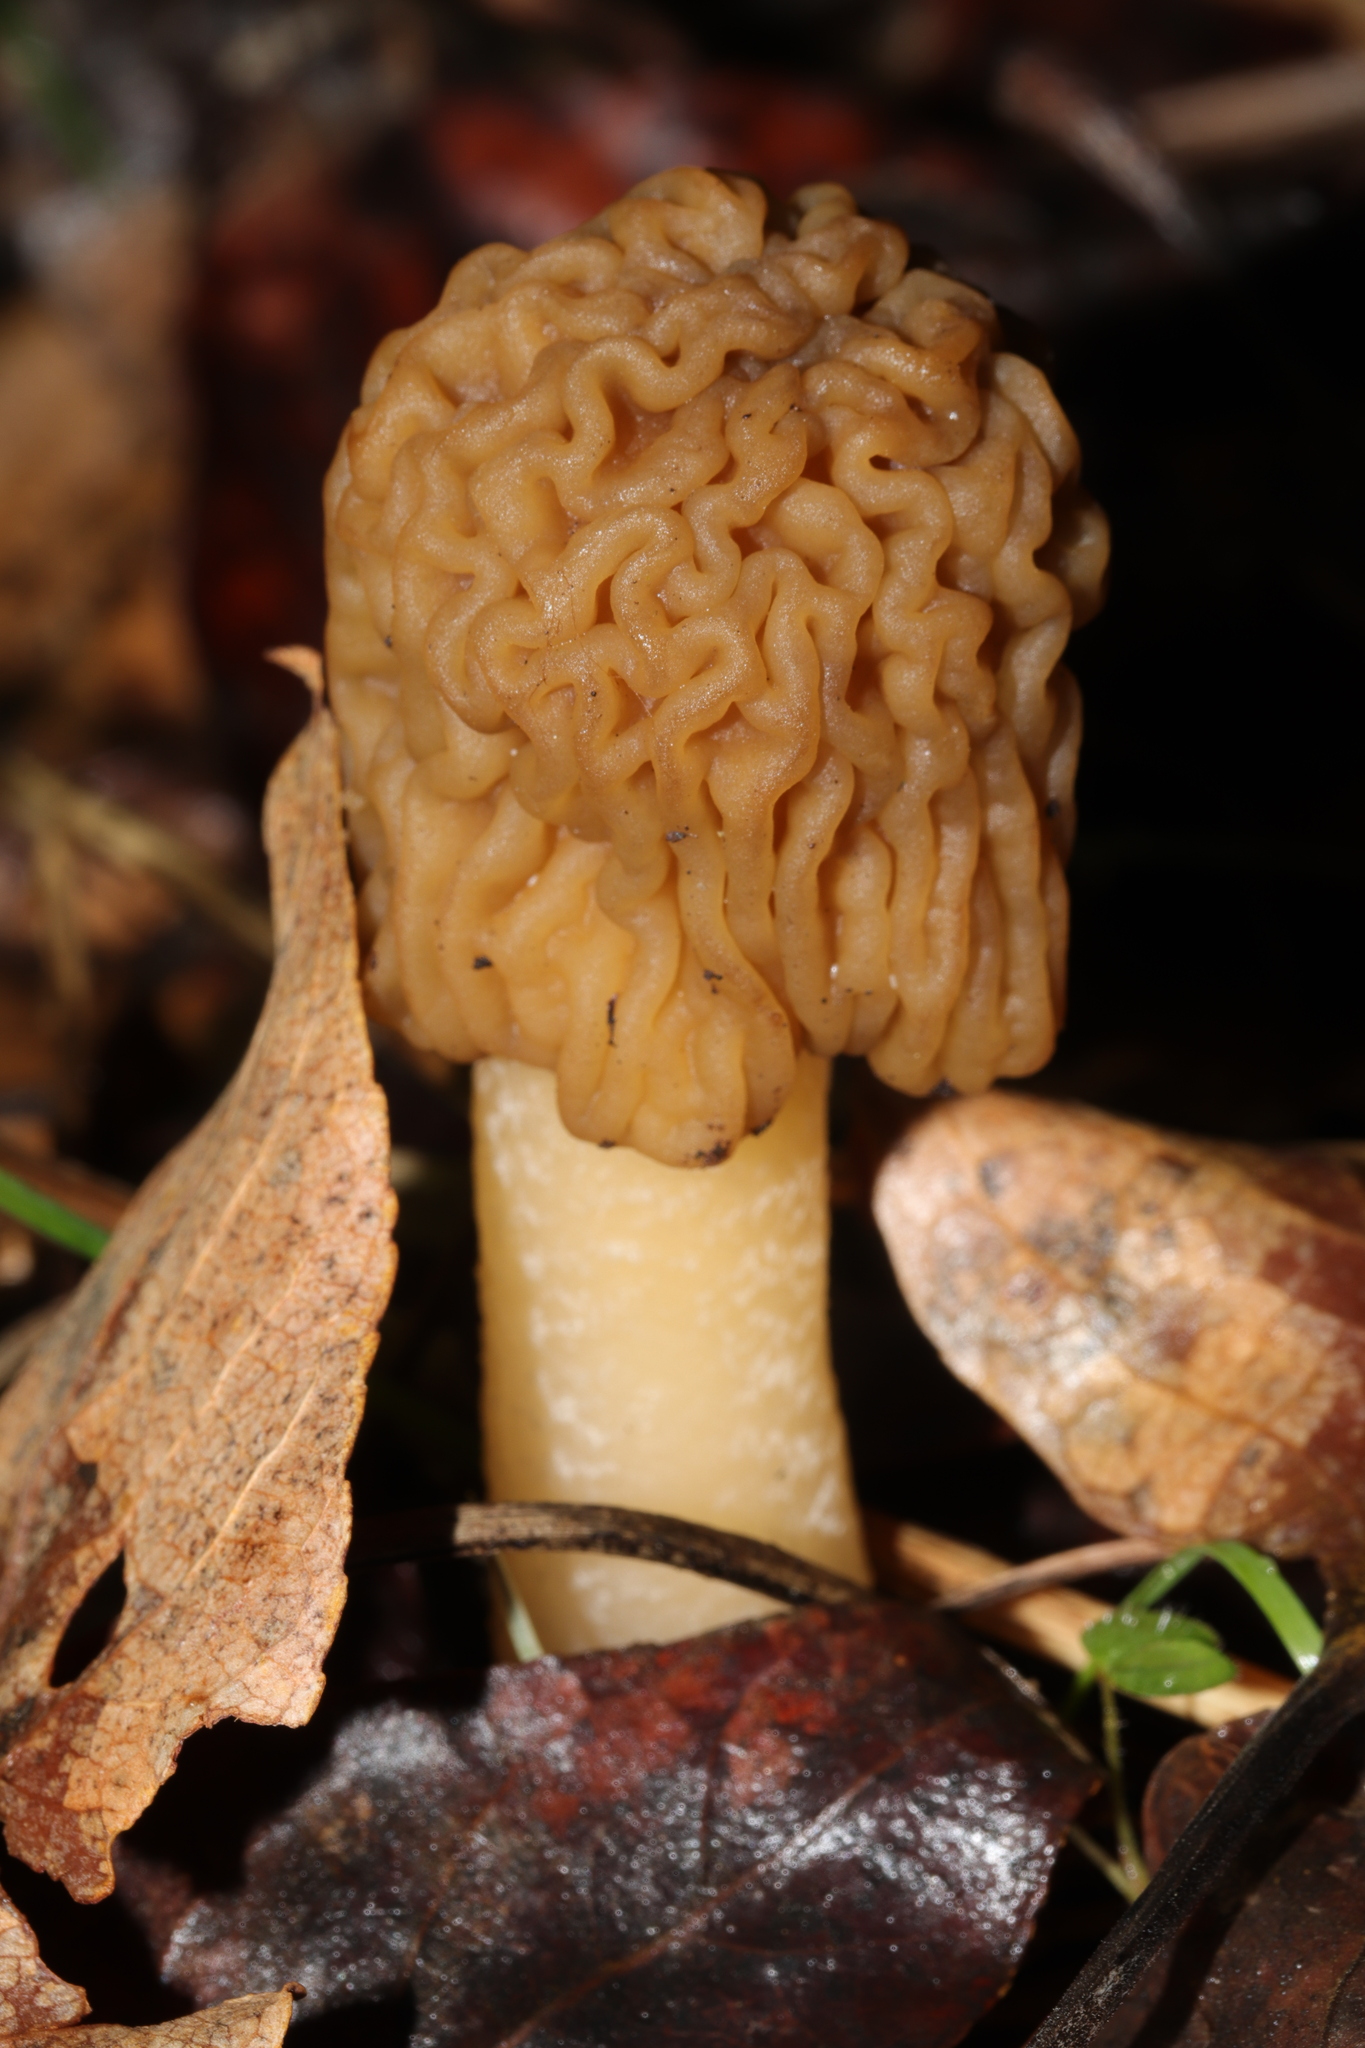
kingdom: Fungi
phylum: Ascomycota
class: Pezizomycetes
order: Pezizales
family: Morchellaceae
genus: Verpa
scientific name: Verpa bohemica
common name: Wrinkled thimble morel
